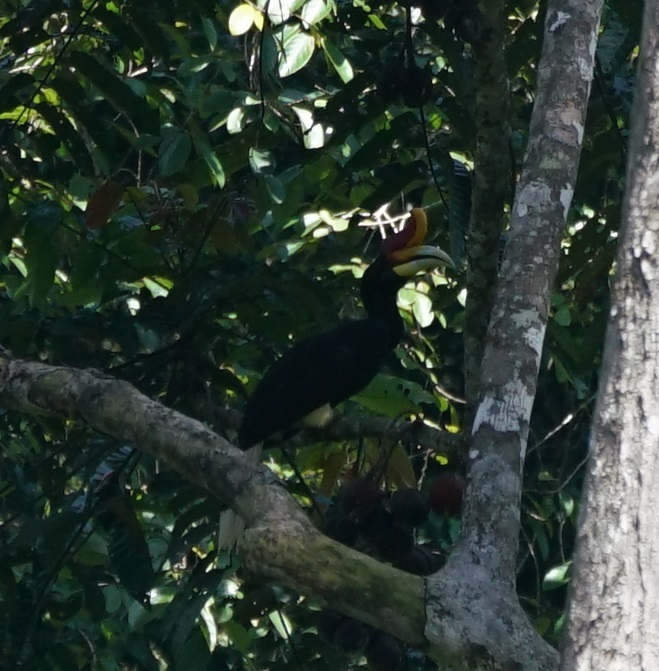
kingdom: Animalia
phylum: Chordata
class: Aves
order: Bucerotiformes
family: Bucerotidae
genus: Buceros
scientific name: Buceros rhinoceros
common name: Rhinoceros hornbill
